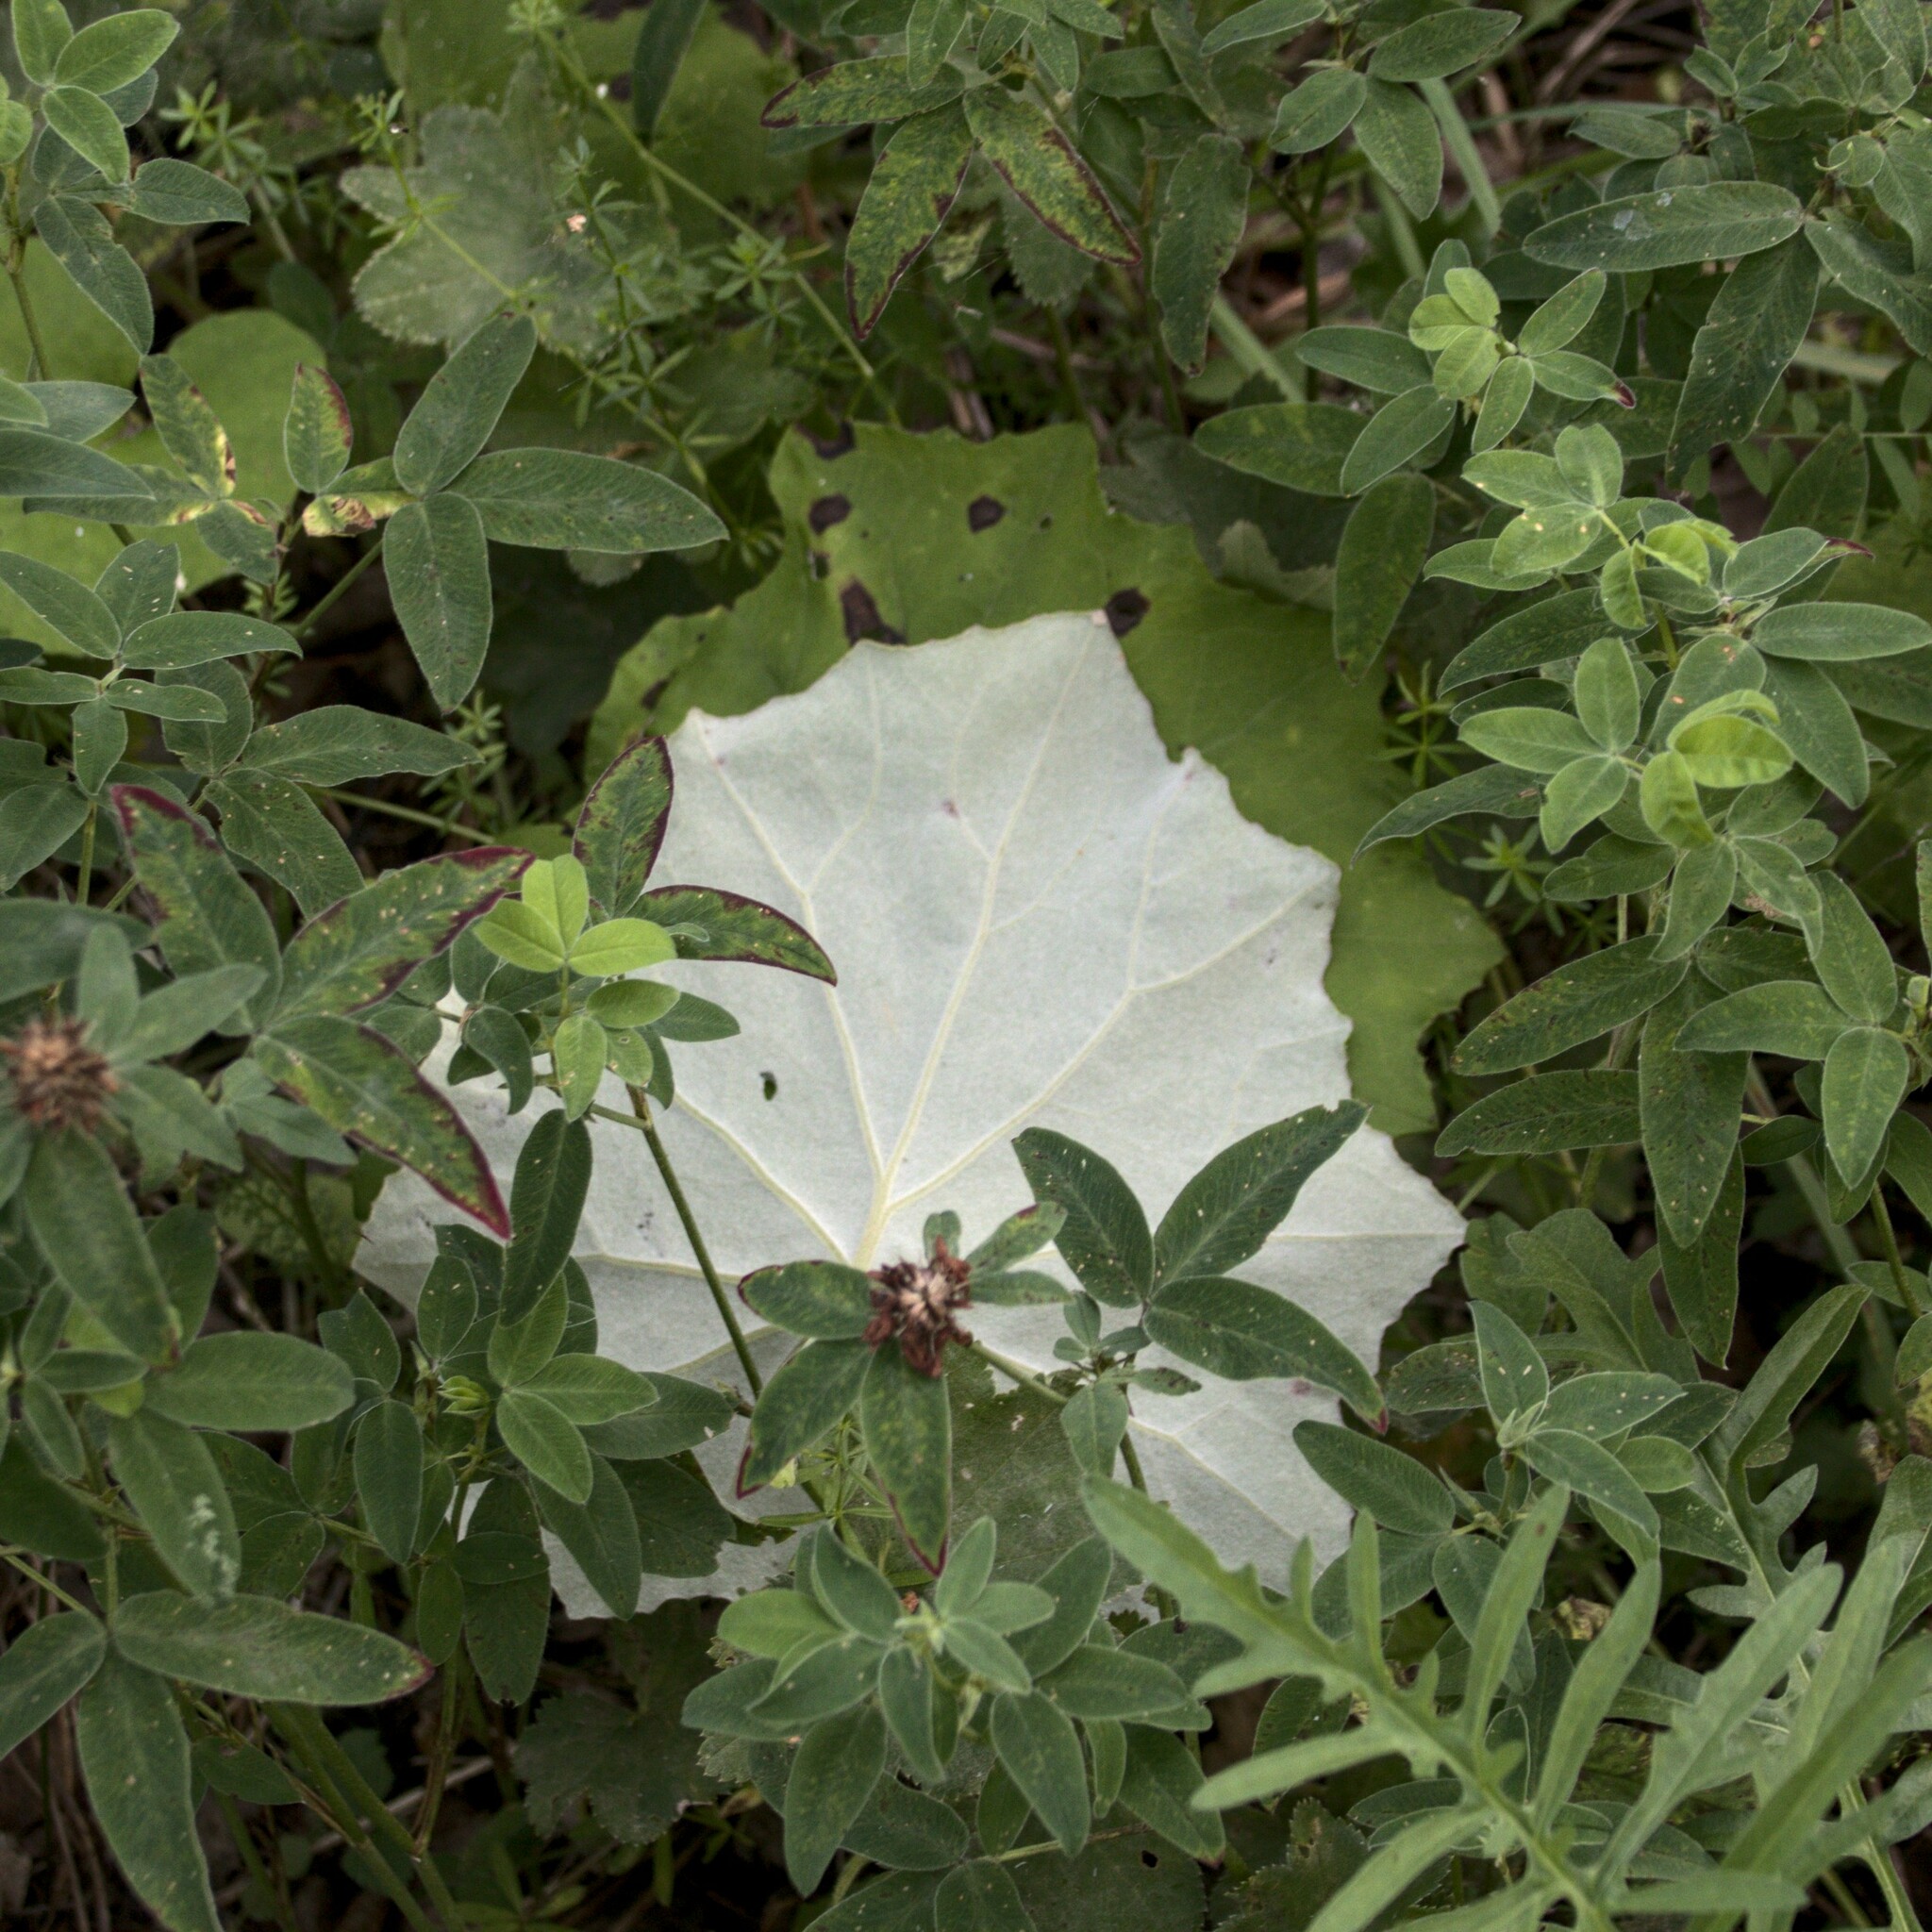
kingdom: Plantae
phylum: Tracheophyta
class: Magnoliopsida
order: Asterales
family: Asteraceae
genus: Tussilago
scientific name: Tussilago farfara
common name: Coltsfoot
